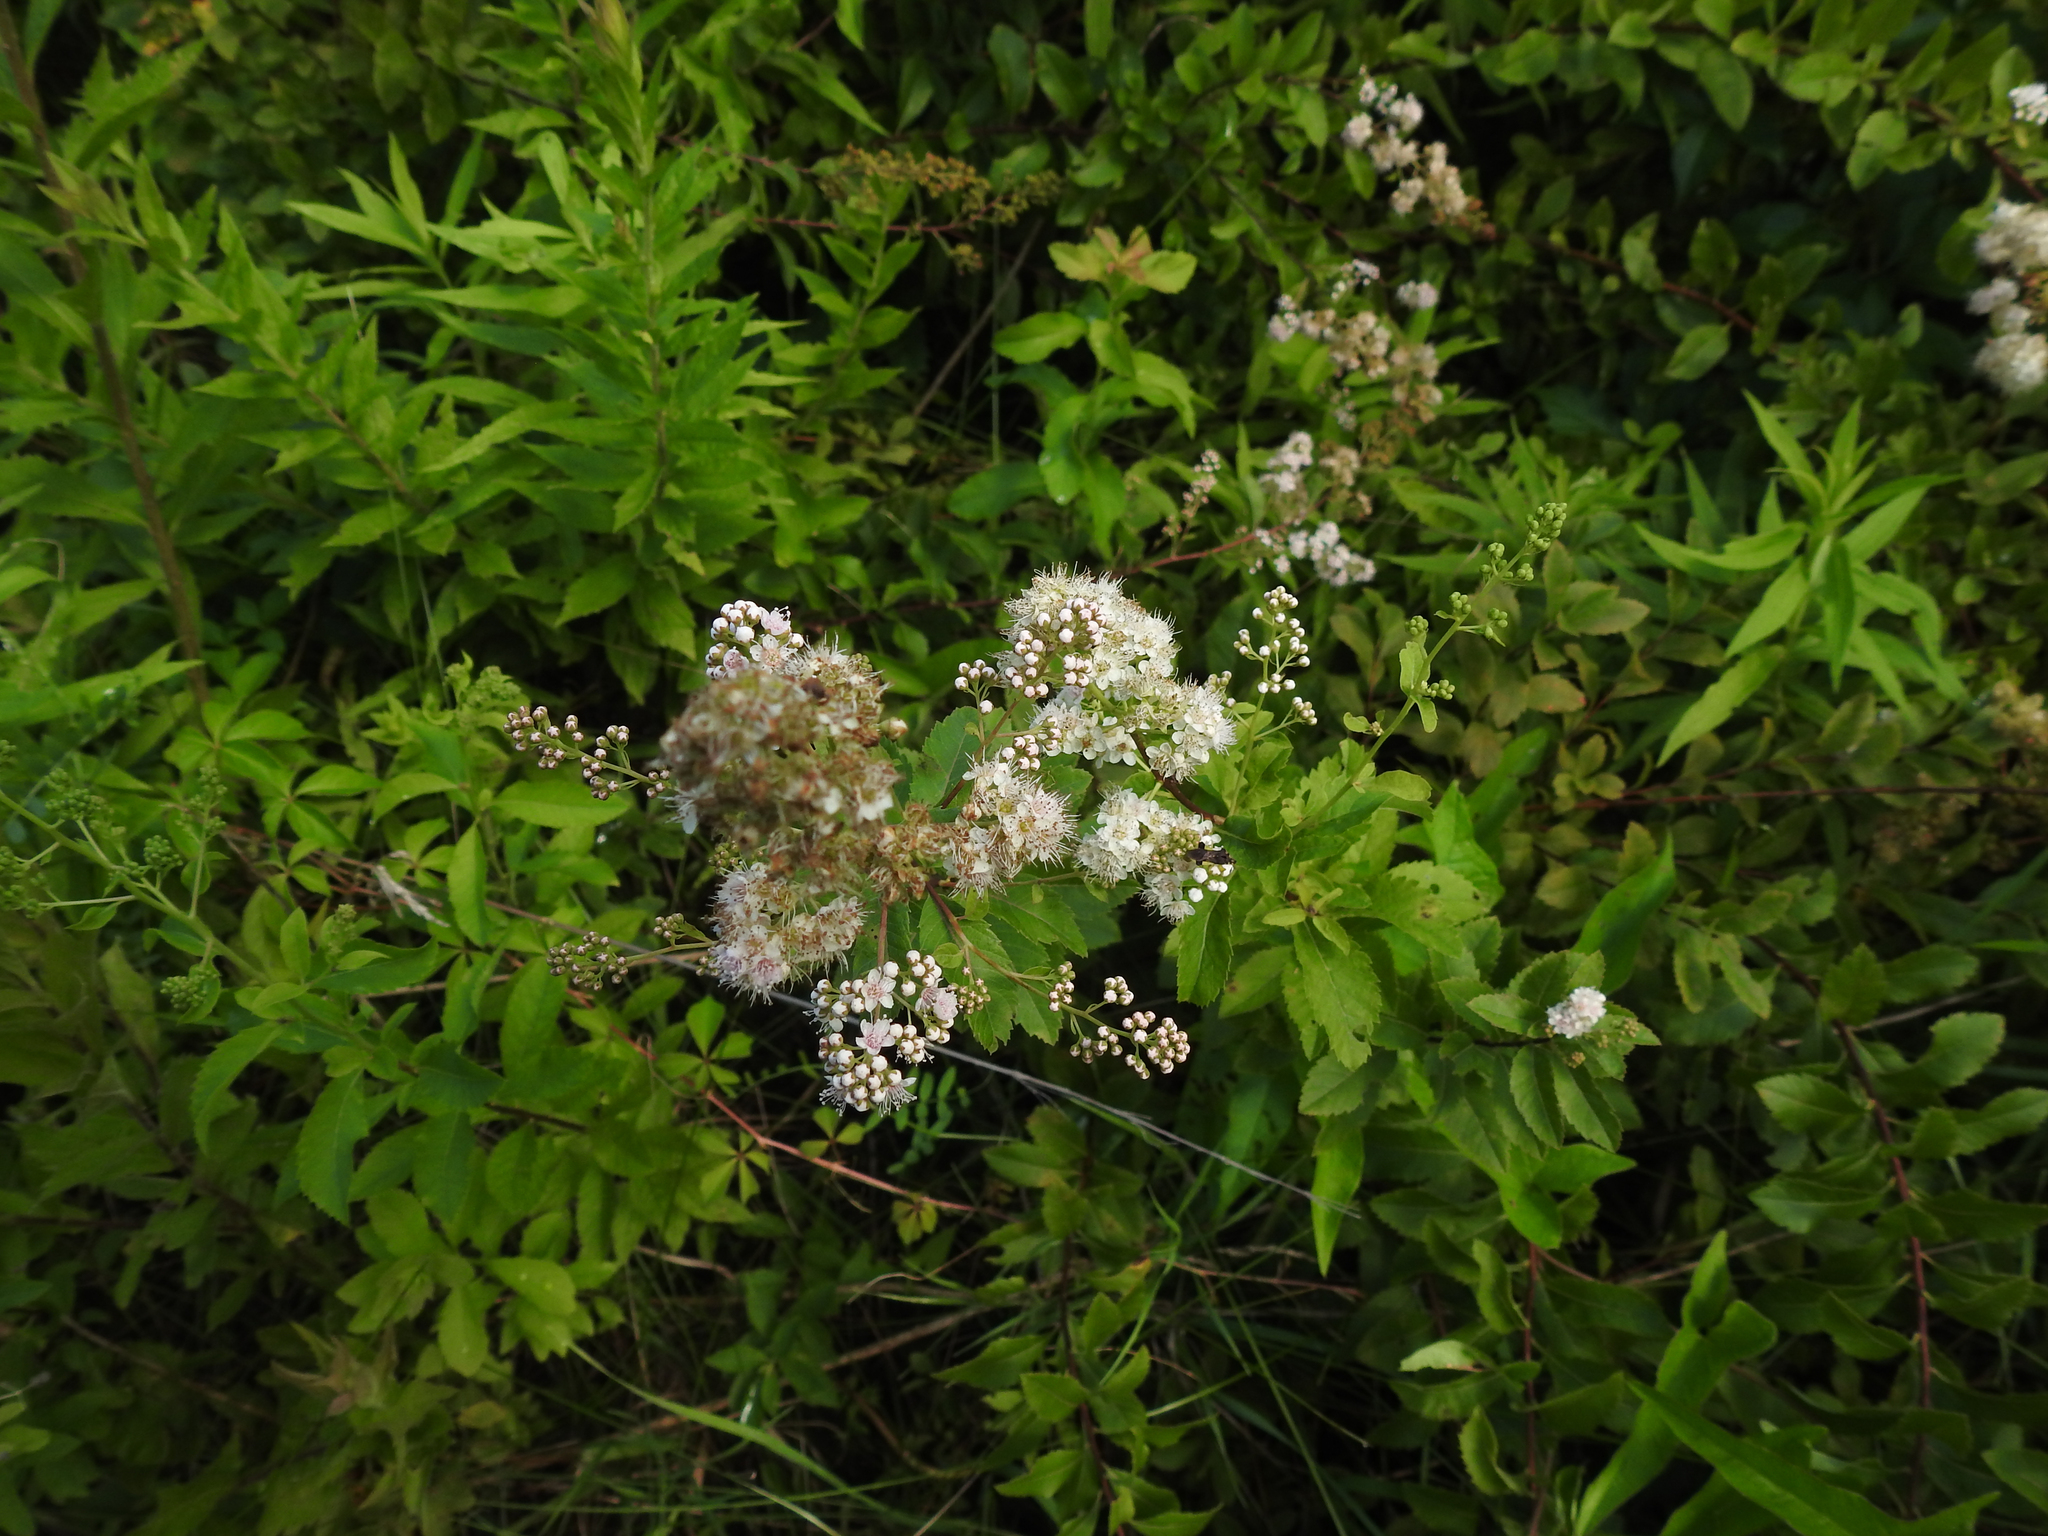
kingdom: Plantae
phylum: Tracheophyta
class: Magnoliopsida
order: Rosales
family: Rosaceae
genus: Spiraea
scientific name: Spiraea alba
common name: Pale bridewort
